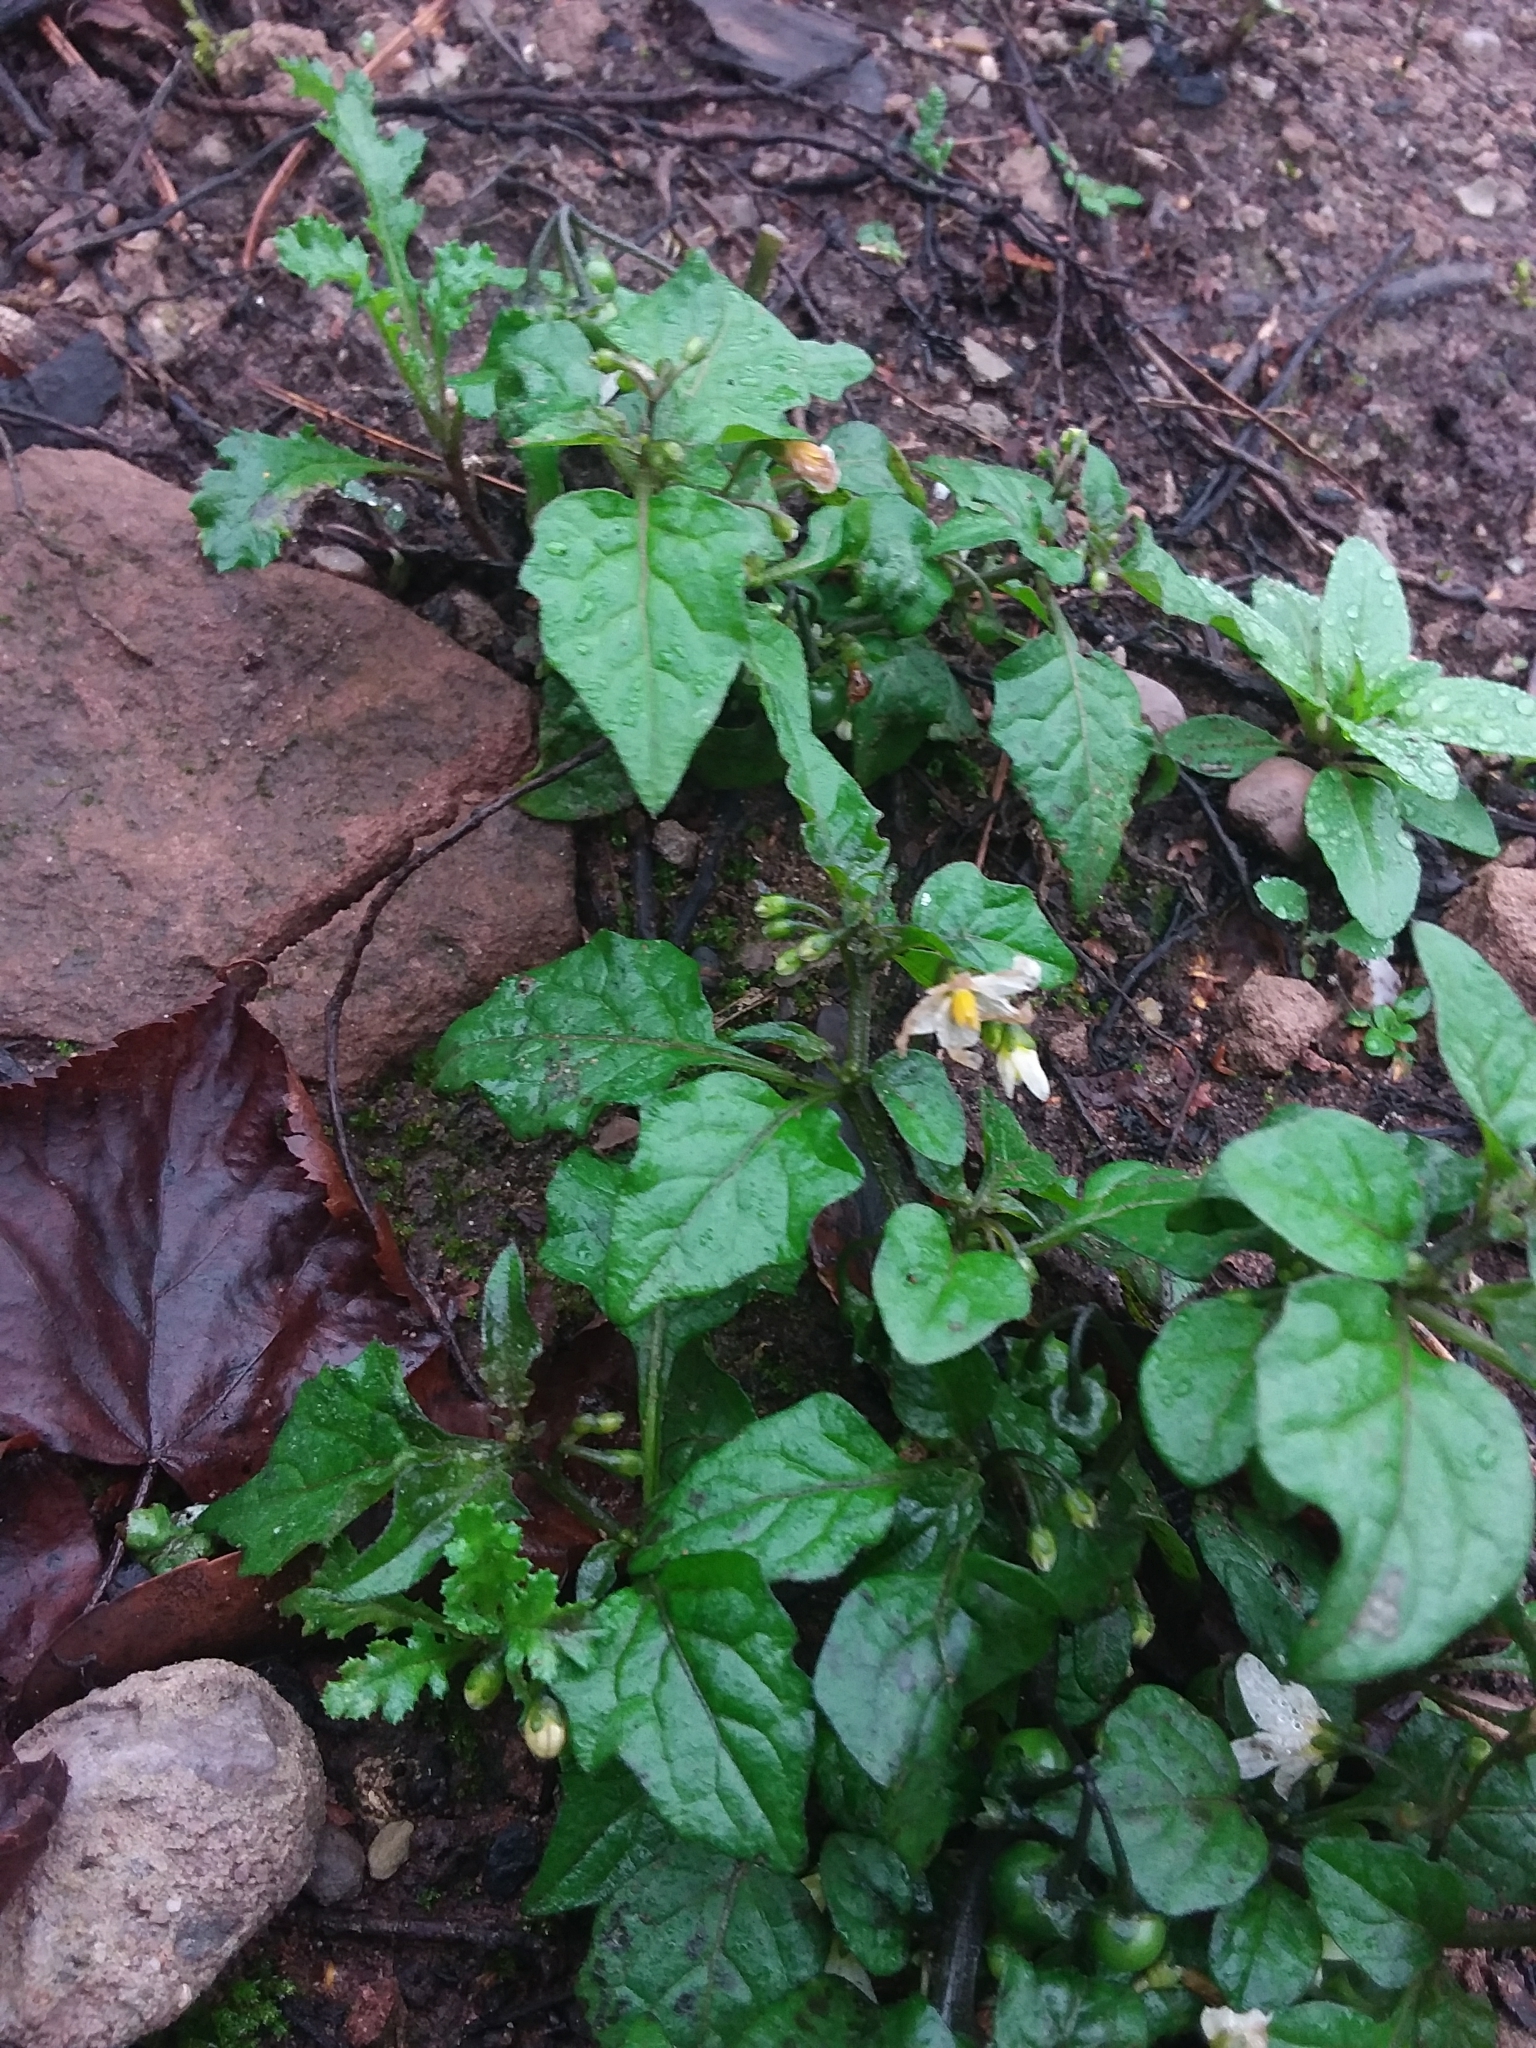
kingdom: Plantae
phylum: Tracheophyta
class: Magnoliopsida
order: Solanales
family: Solanaceae
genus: Solanum
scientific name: Solanum nigrum
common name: Black nightshade
